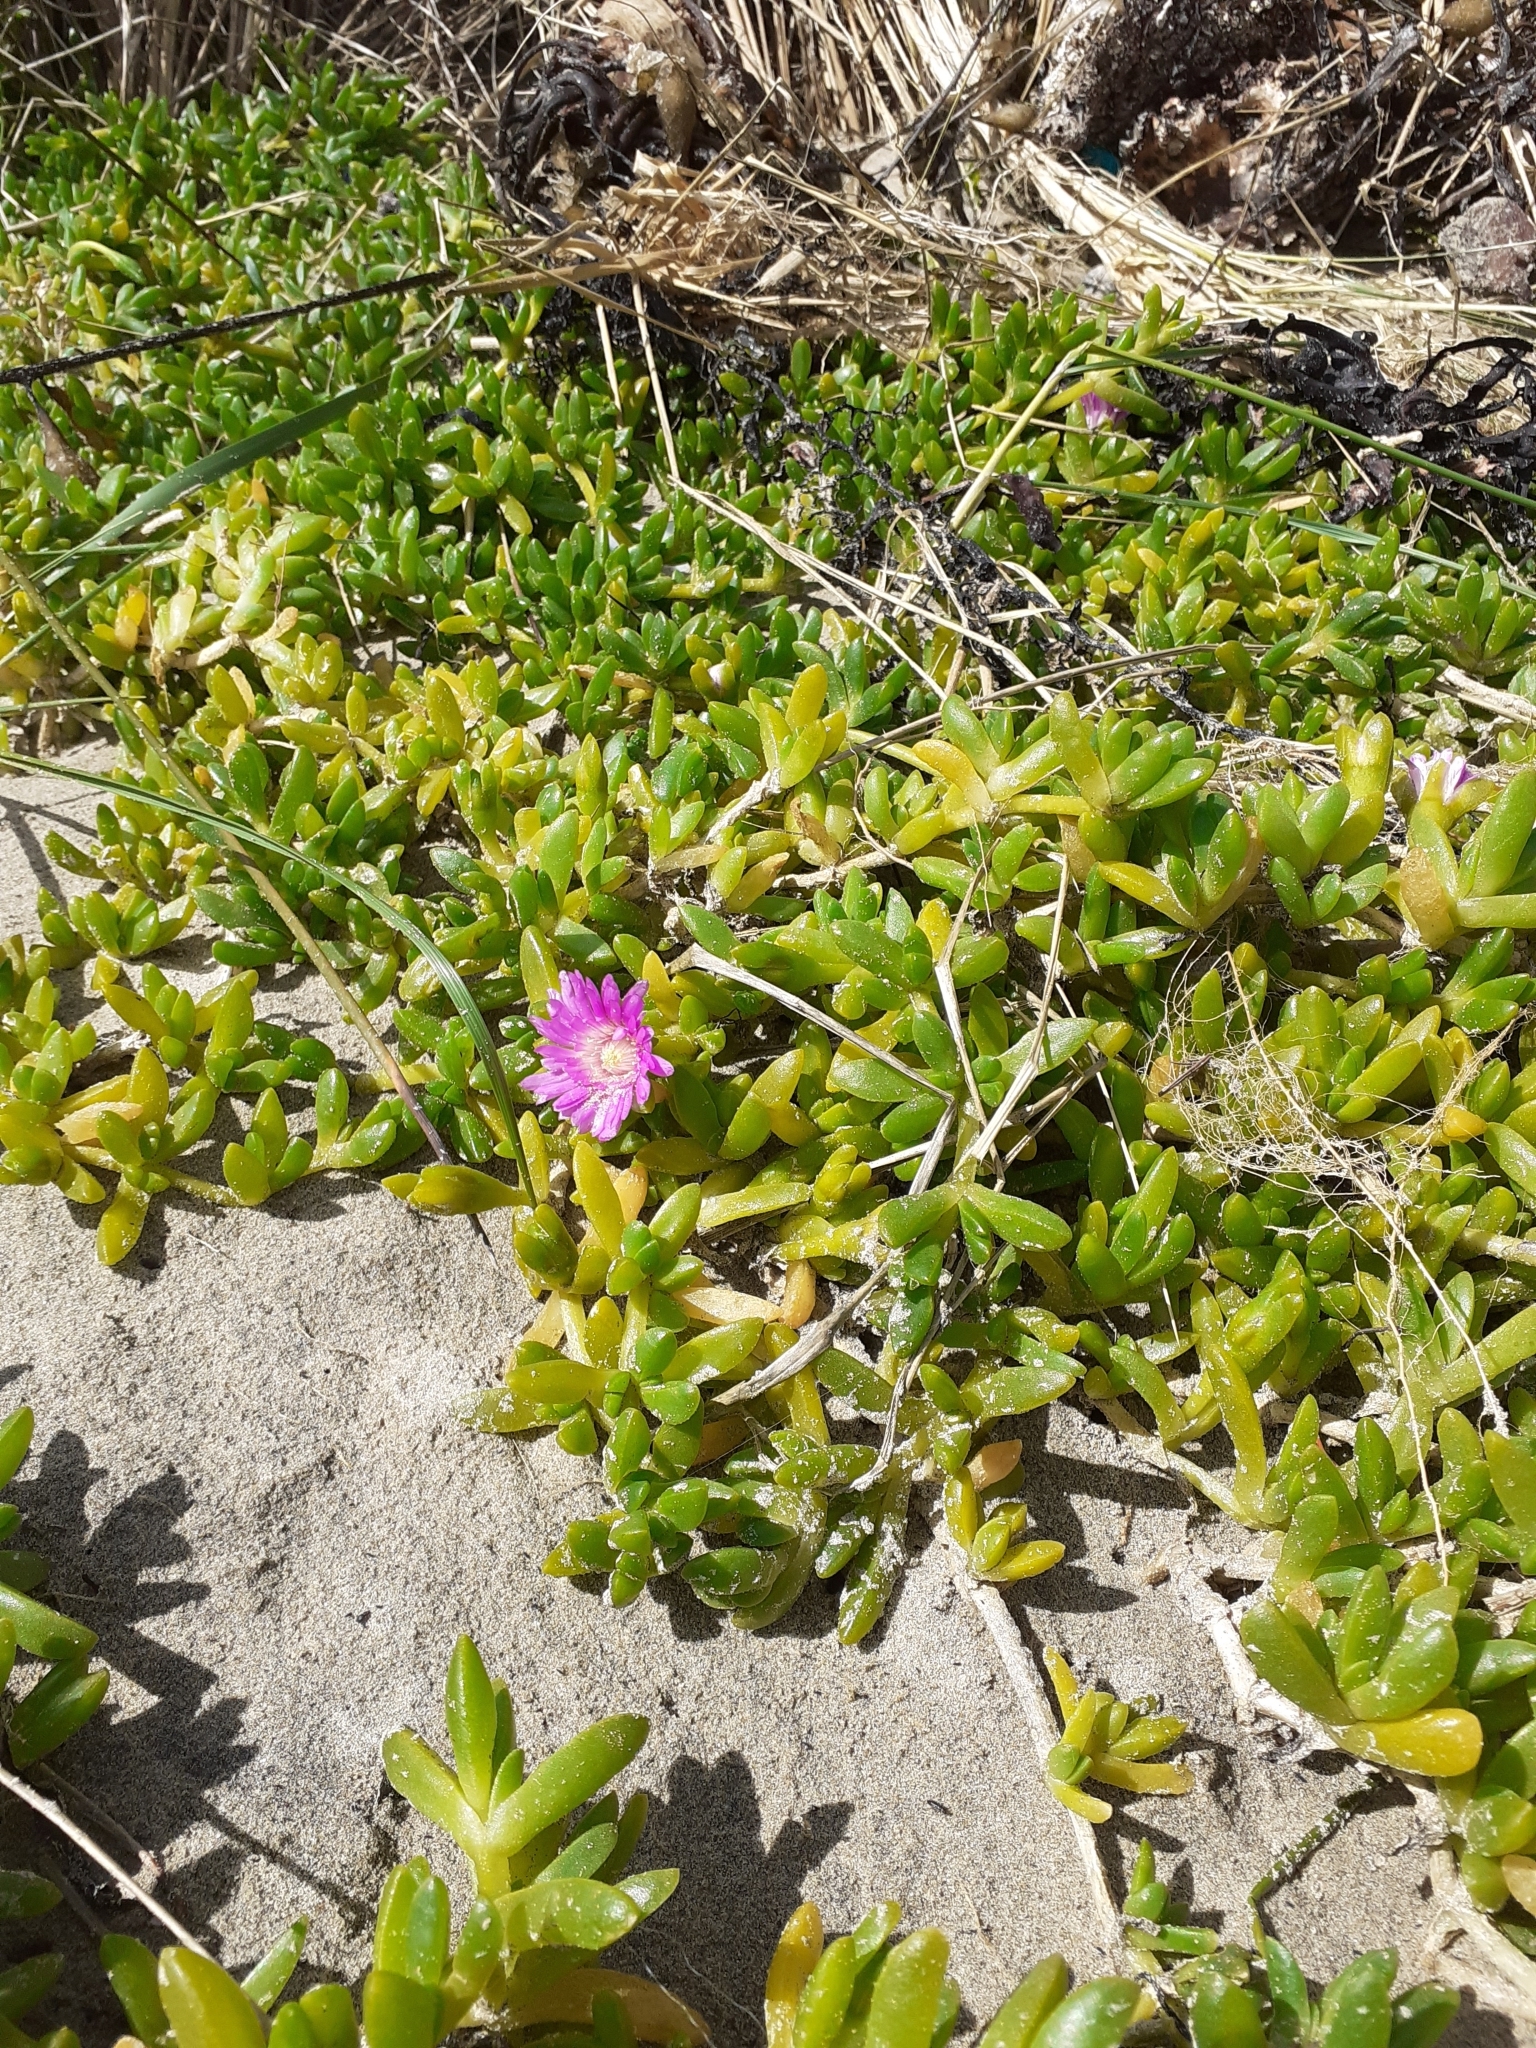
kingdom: Plantae
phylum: Tracheophyta
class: Magnoliopsida
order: Caryophyllales
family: Aizoaceae
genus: Disphyma
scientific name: Disphyma papillatum
